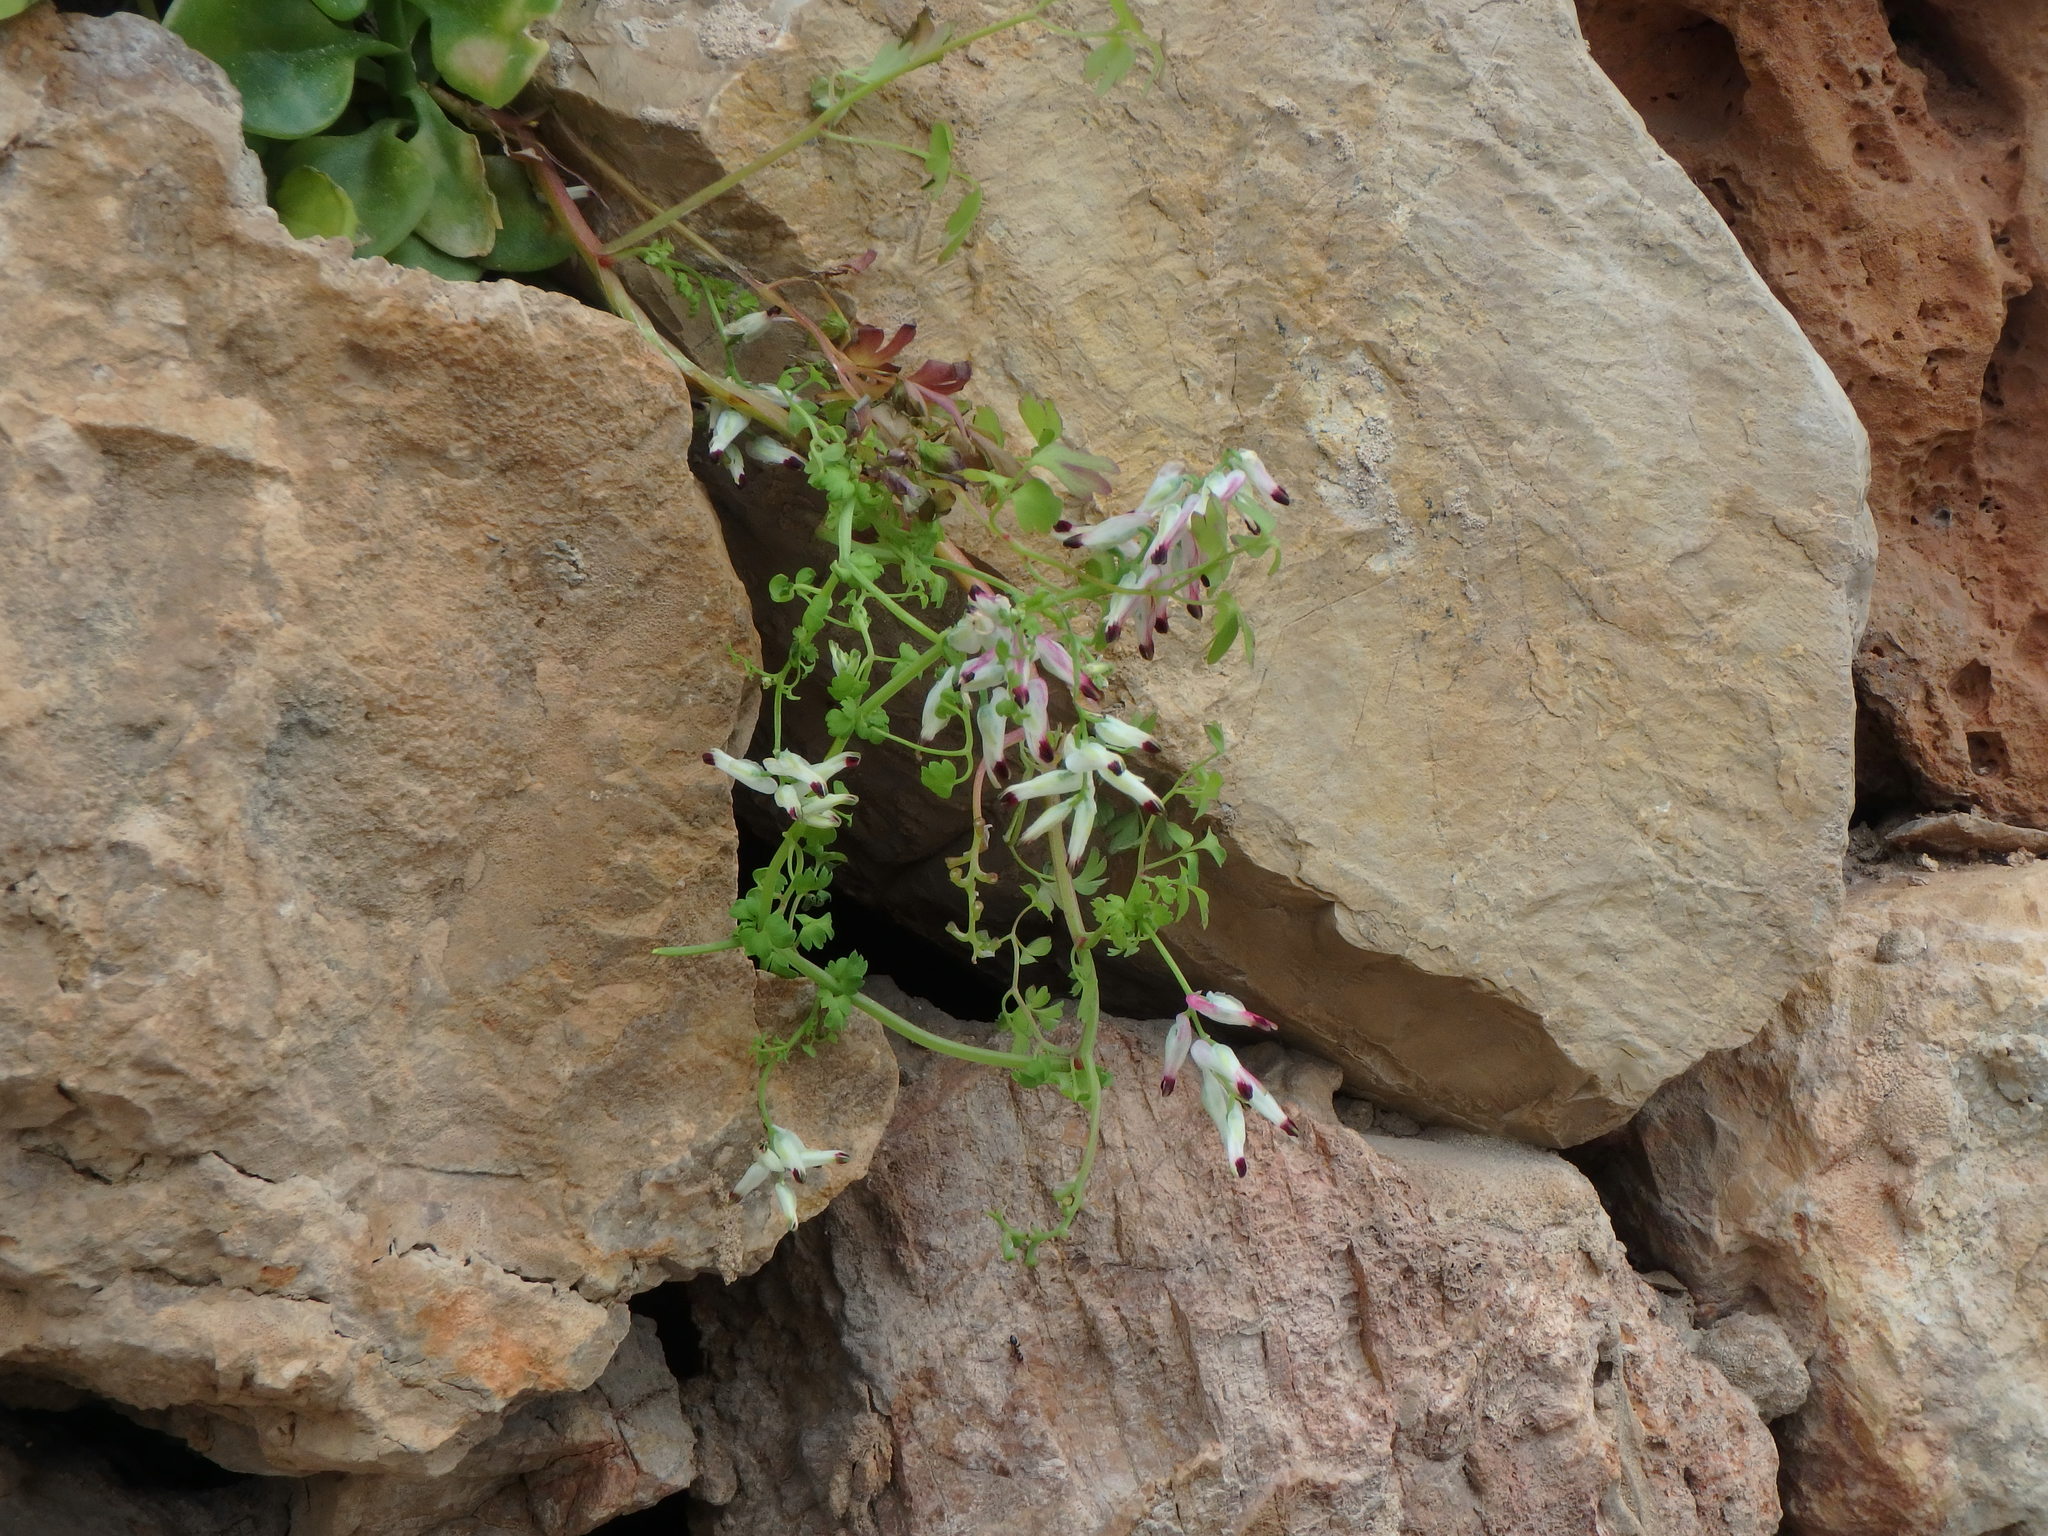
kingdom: Plantae
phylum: Tracheophyta
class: Magnoliopsida
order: Ranunculales
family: Papaveraceae
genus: Fumaria
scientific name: Fumaria capreolata
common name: White ramping-fumitory
